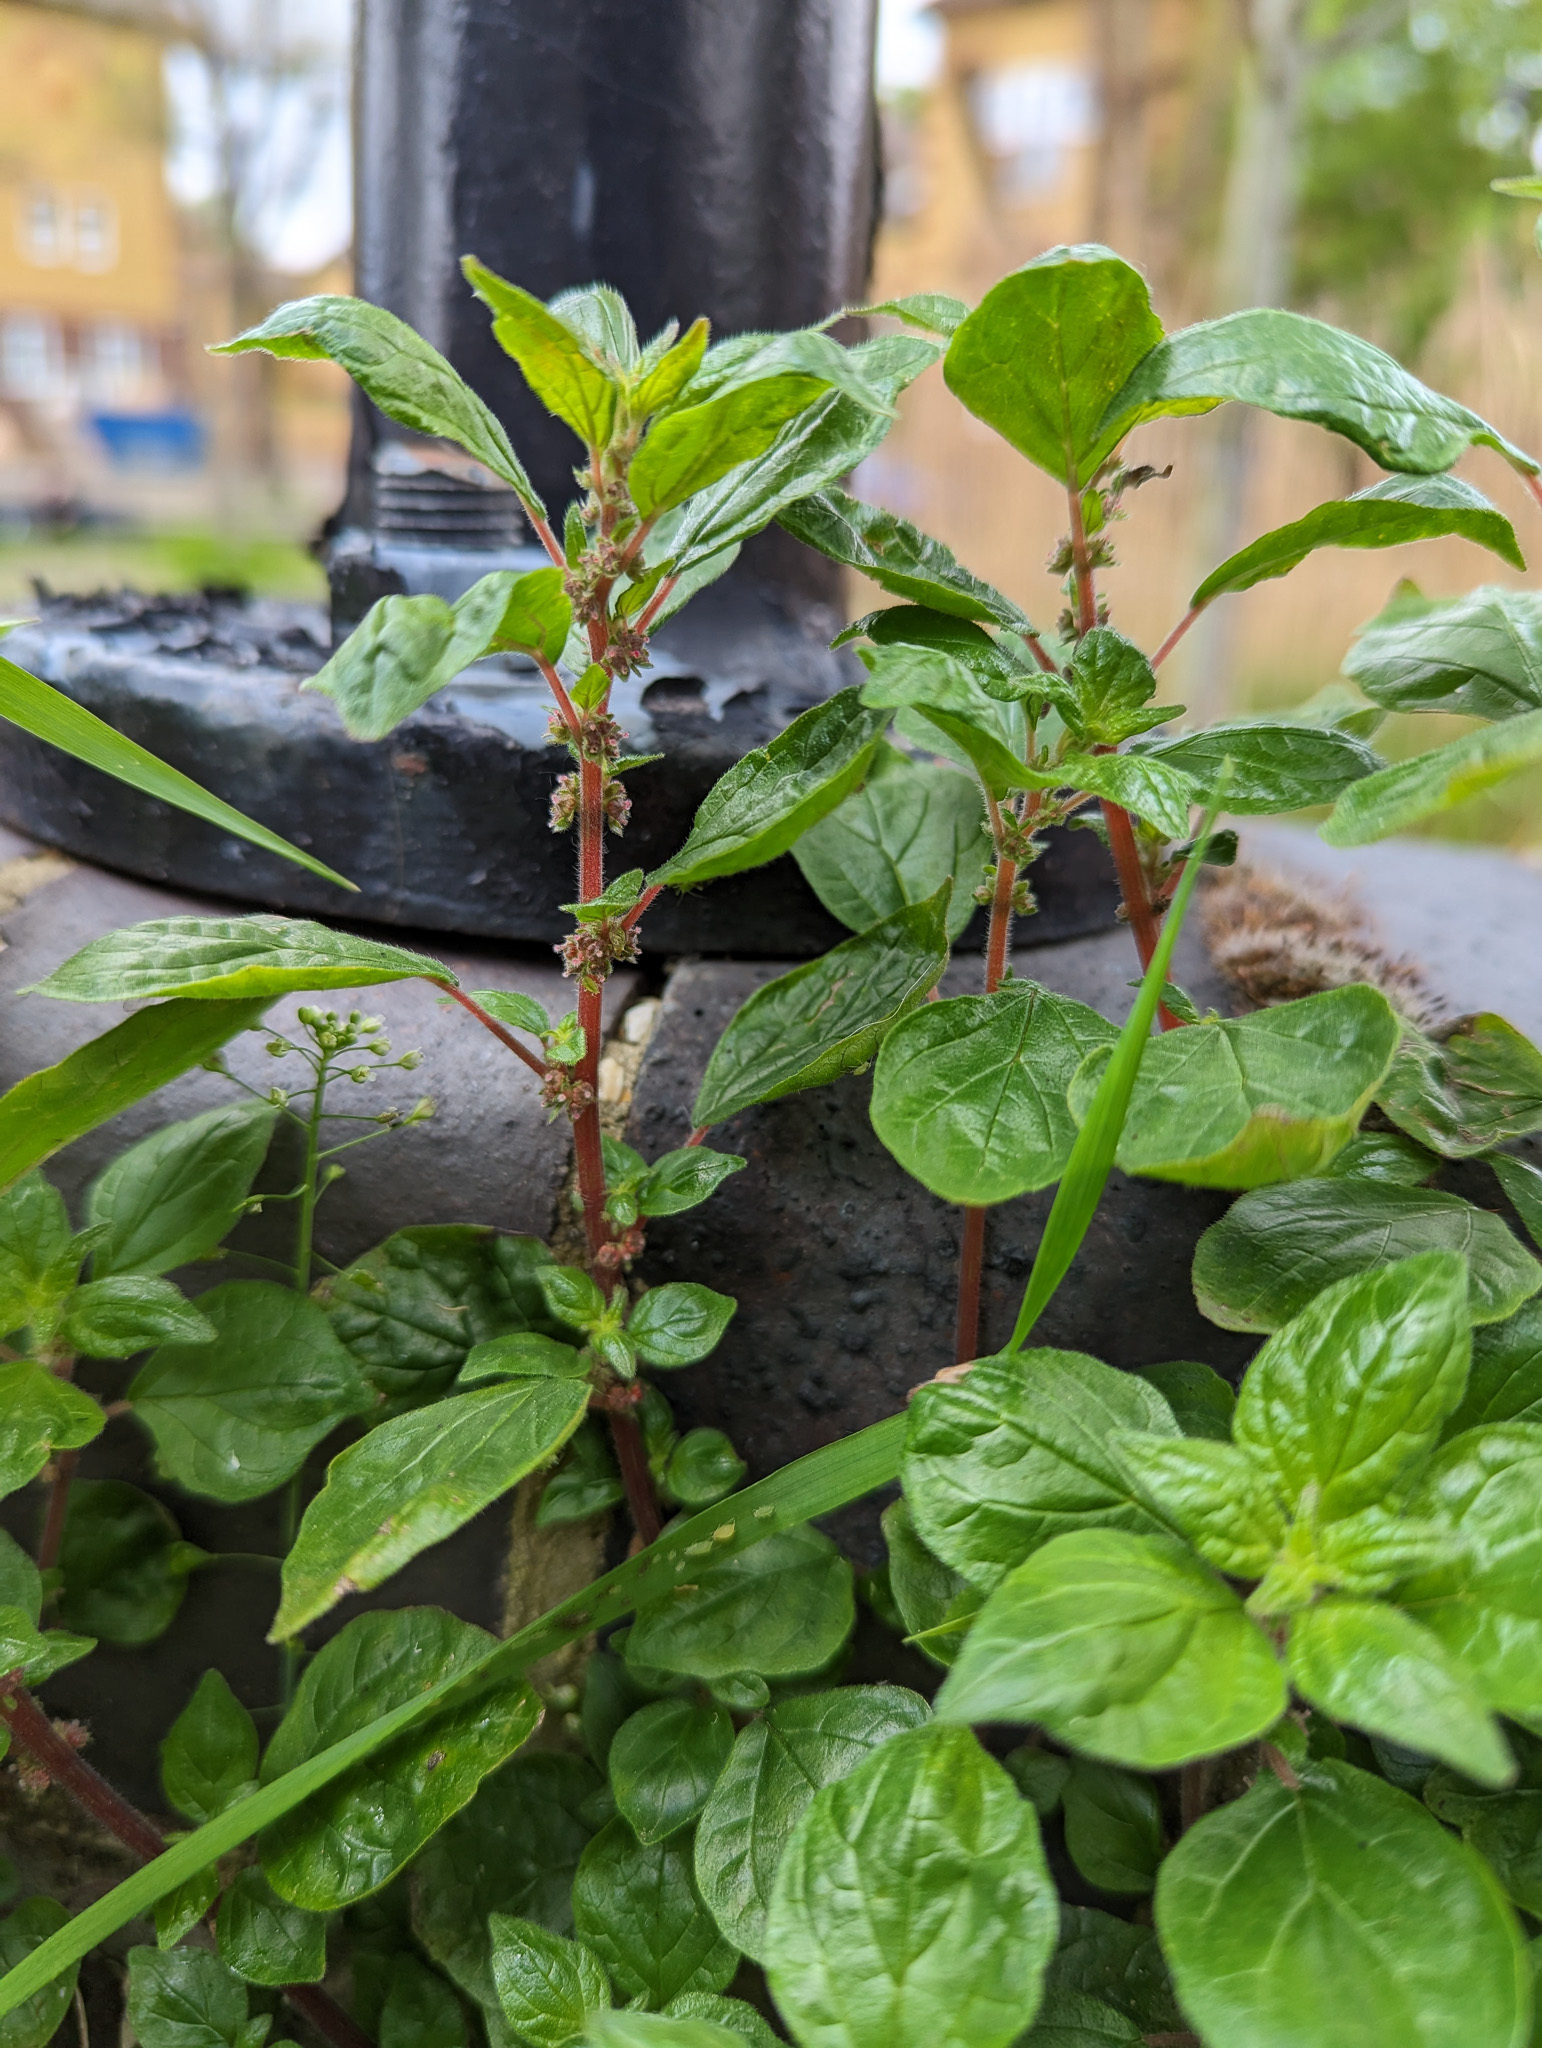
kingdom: Plantae
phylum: Tracheophyta
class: Magnoliopsida
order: Rosales
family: Urticaceae
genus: Parietaria
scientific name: Parietaria judaica
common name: Pellitory-of-the-wall
